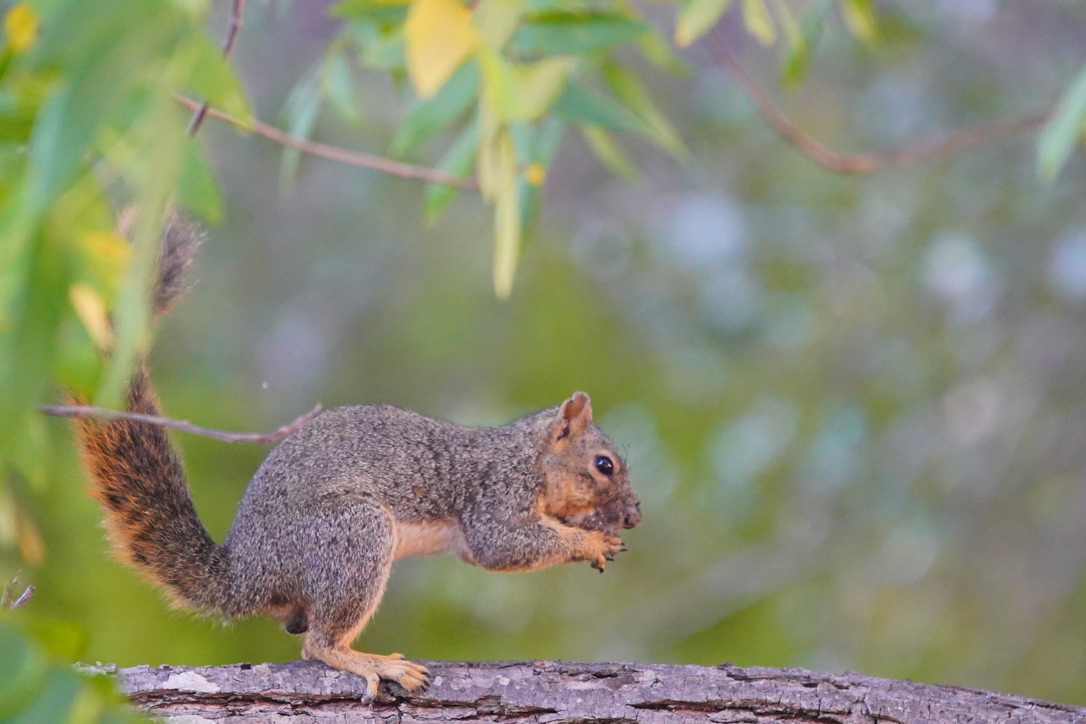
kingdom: Animalia
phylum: Chordata
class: Mammalia
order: Rodentia
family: Sciuridae
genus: Sciurus
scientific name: Sciurus niger
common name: Fox squirrel
